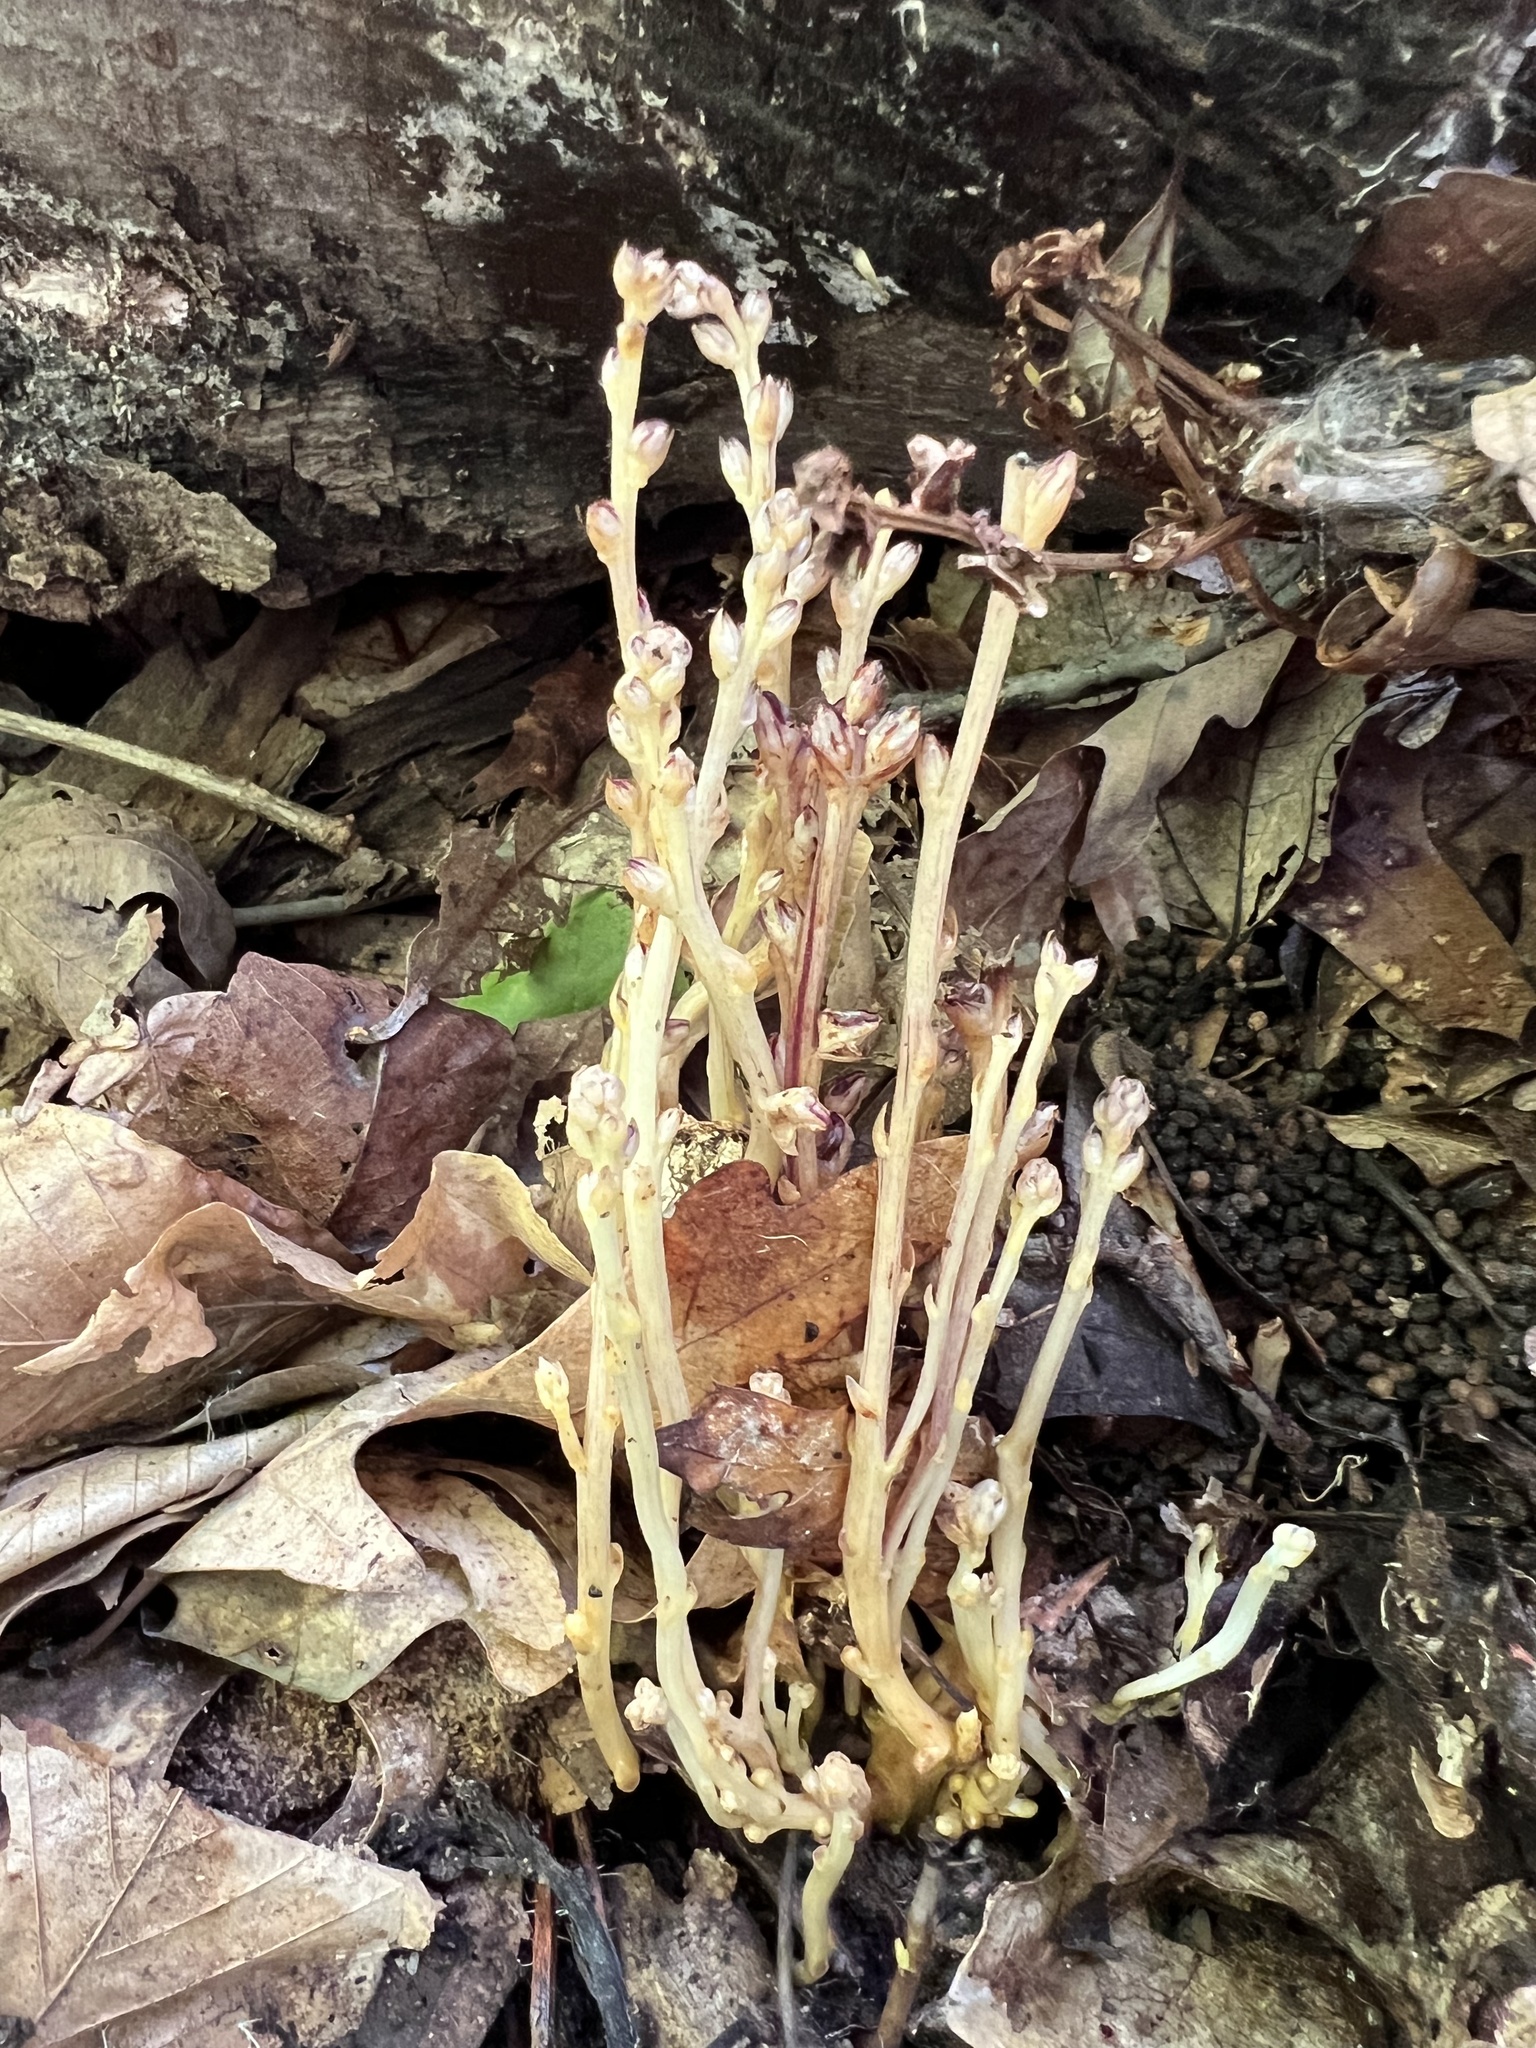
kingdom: Plantae
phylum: Tracheophyta
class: Magnoliopsida
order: Lamiales
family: Orobanchaceae
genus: Epifagus
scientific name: Epifagus virginiana
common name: Beechdrops
